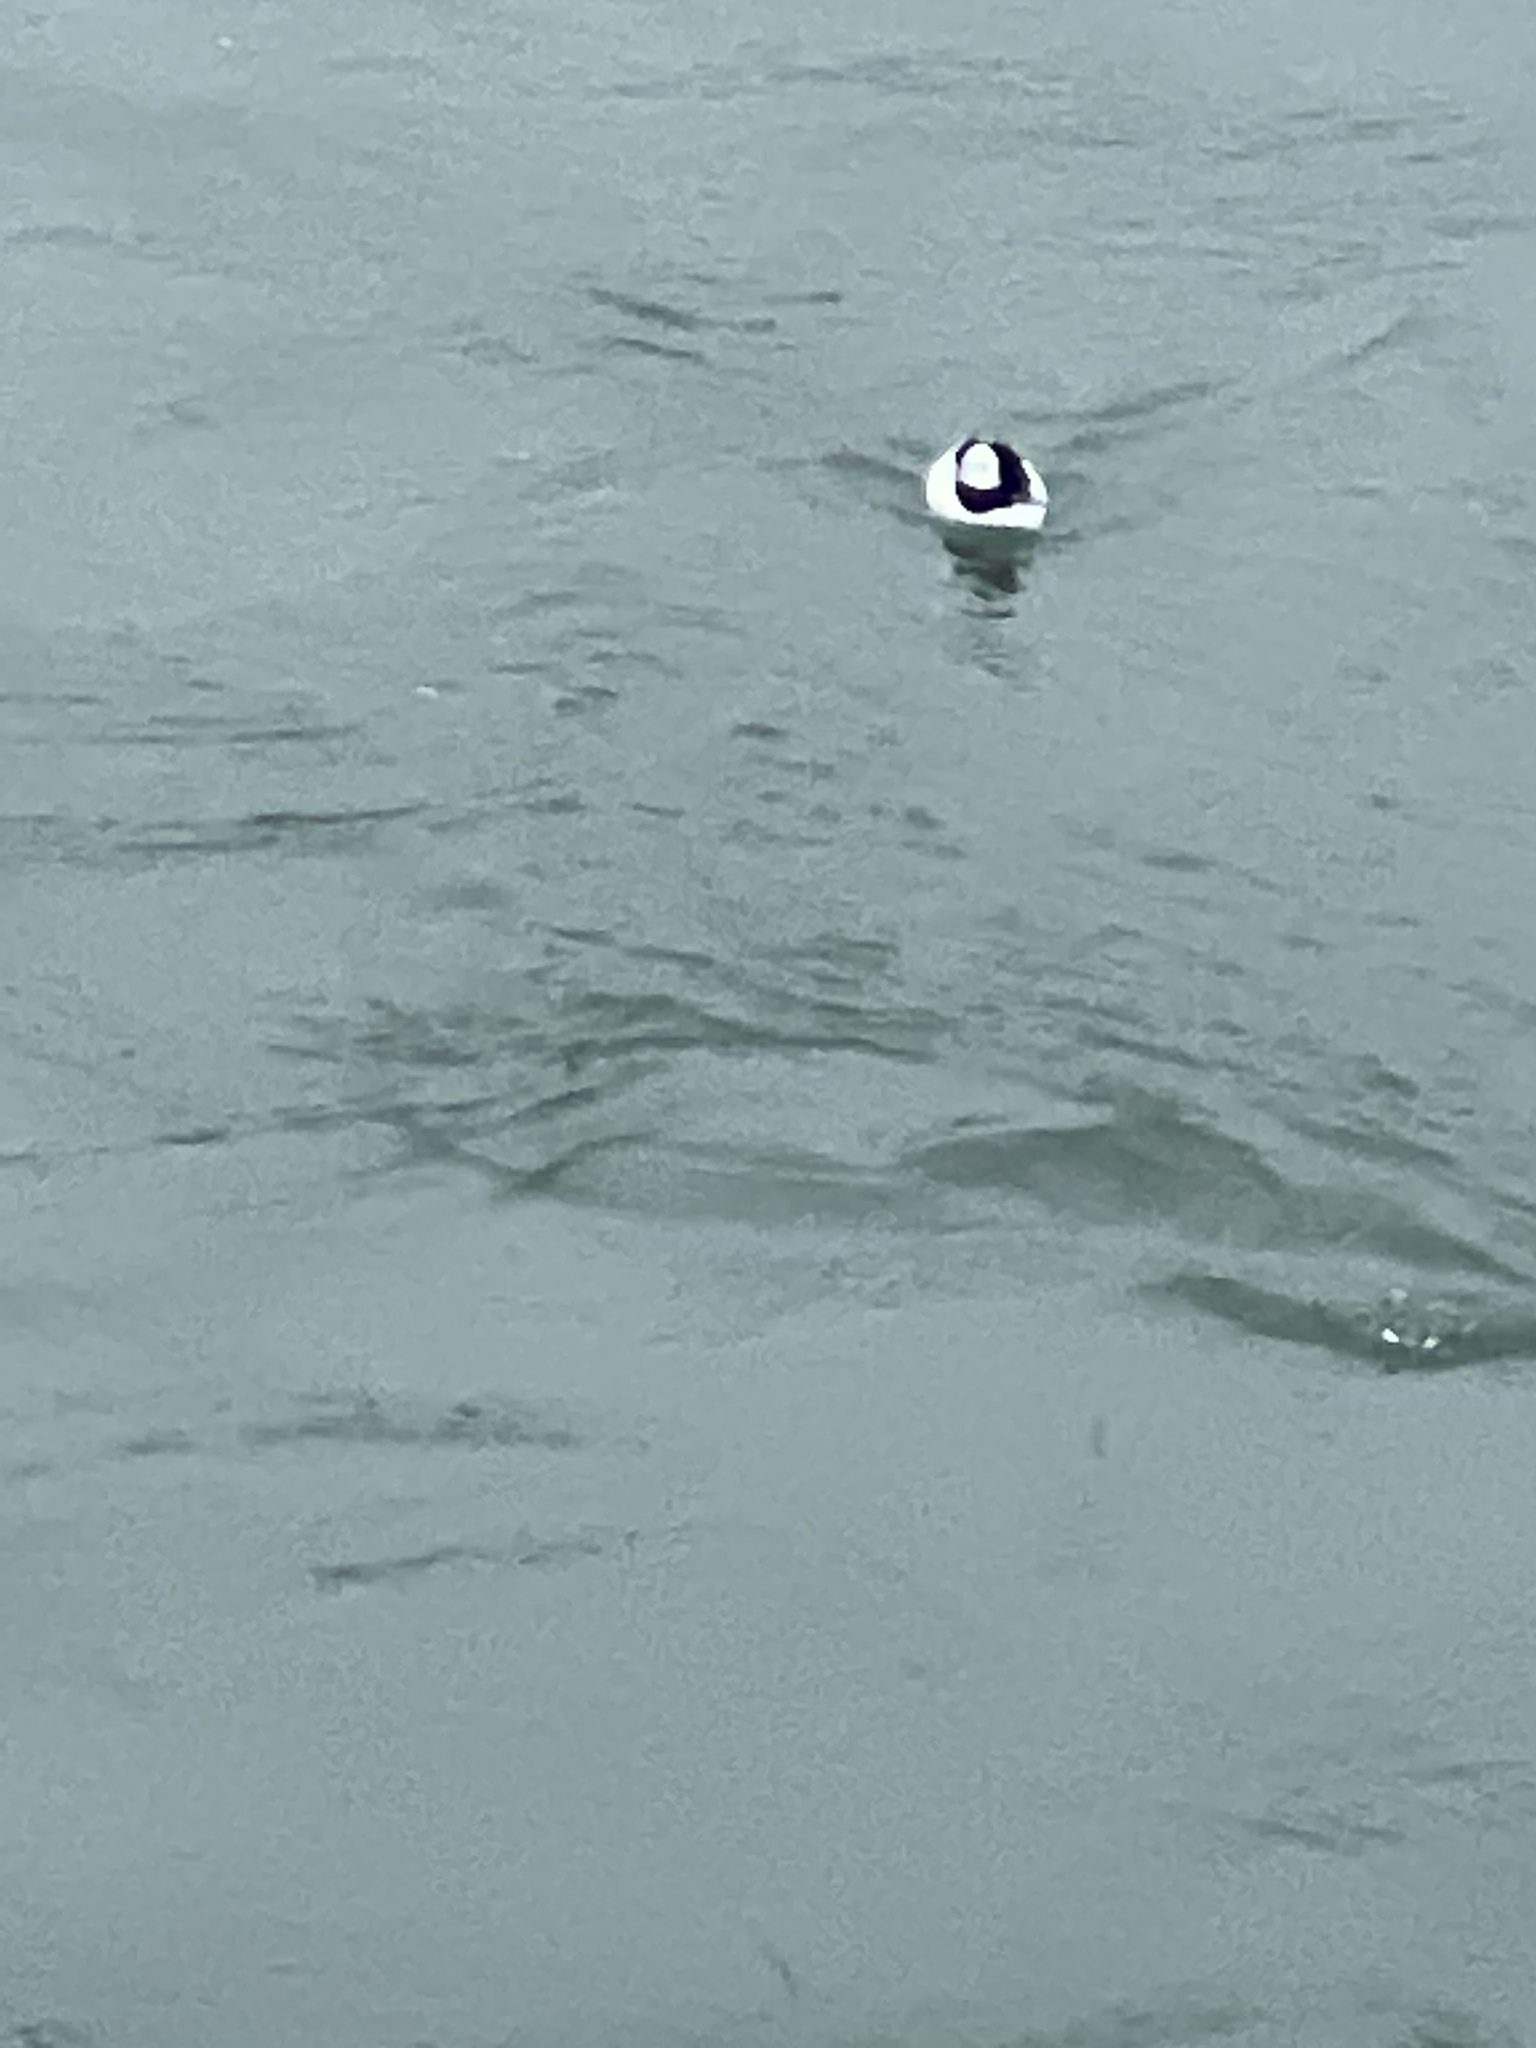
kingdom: Animalia
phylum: Chordata
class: Aves
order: Anseriformes
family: Anatidae
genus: Bucephala
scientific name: Bucephala albeola
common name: Bufflehead
